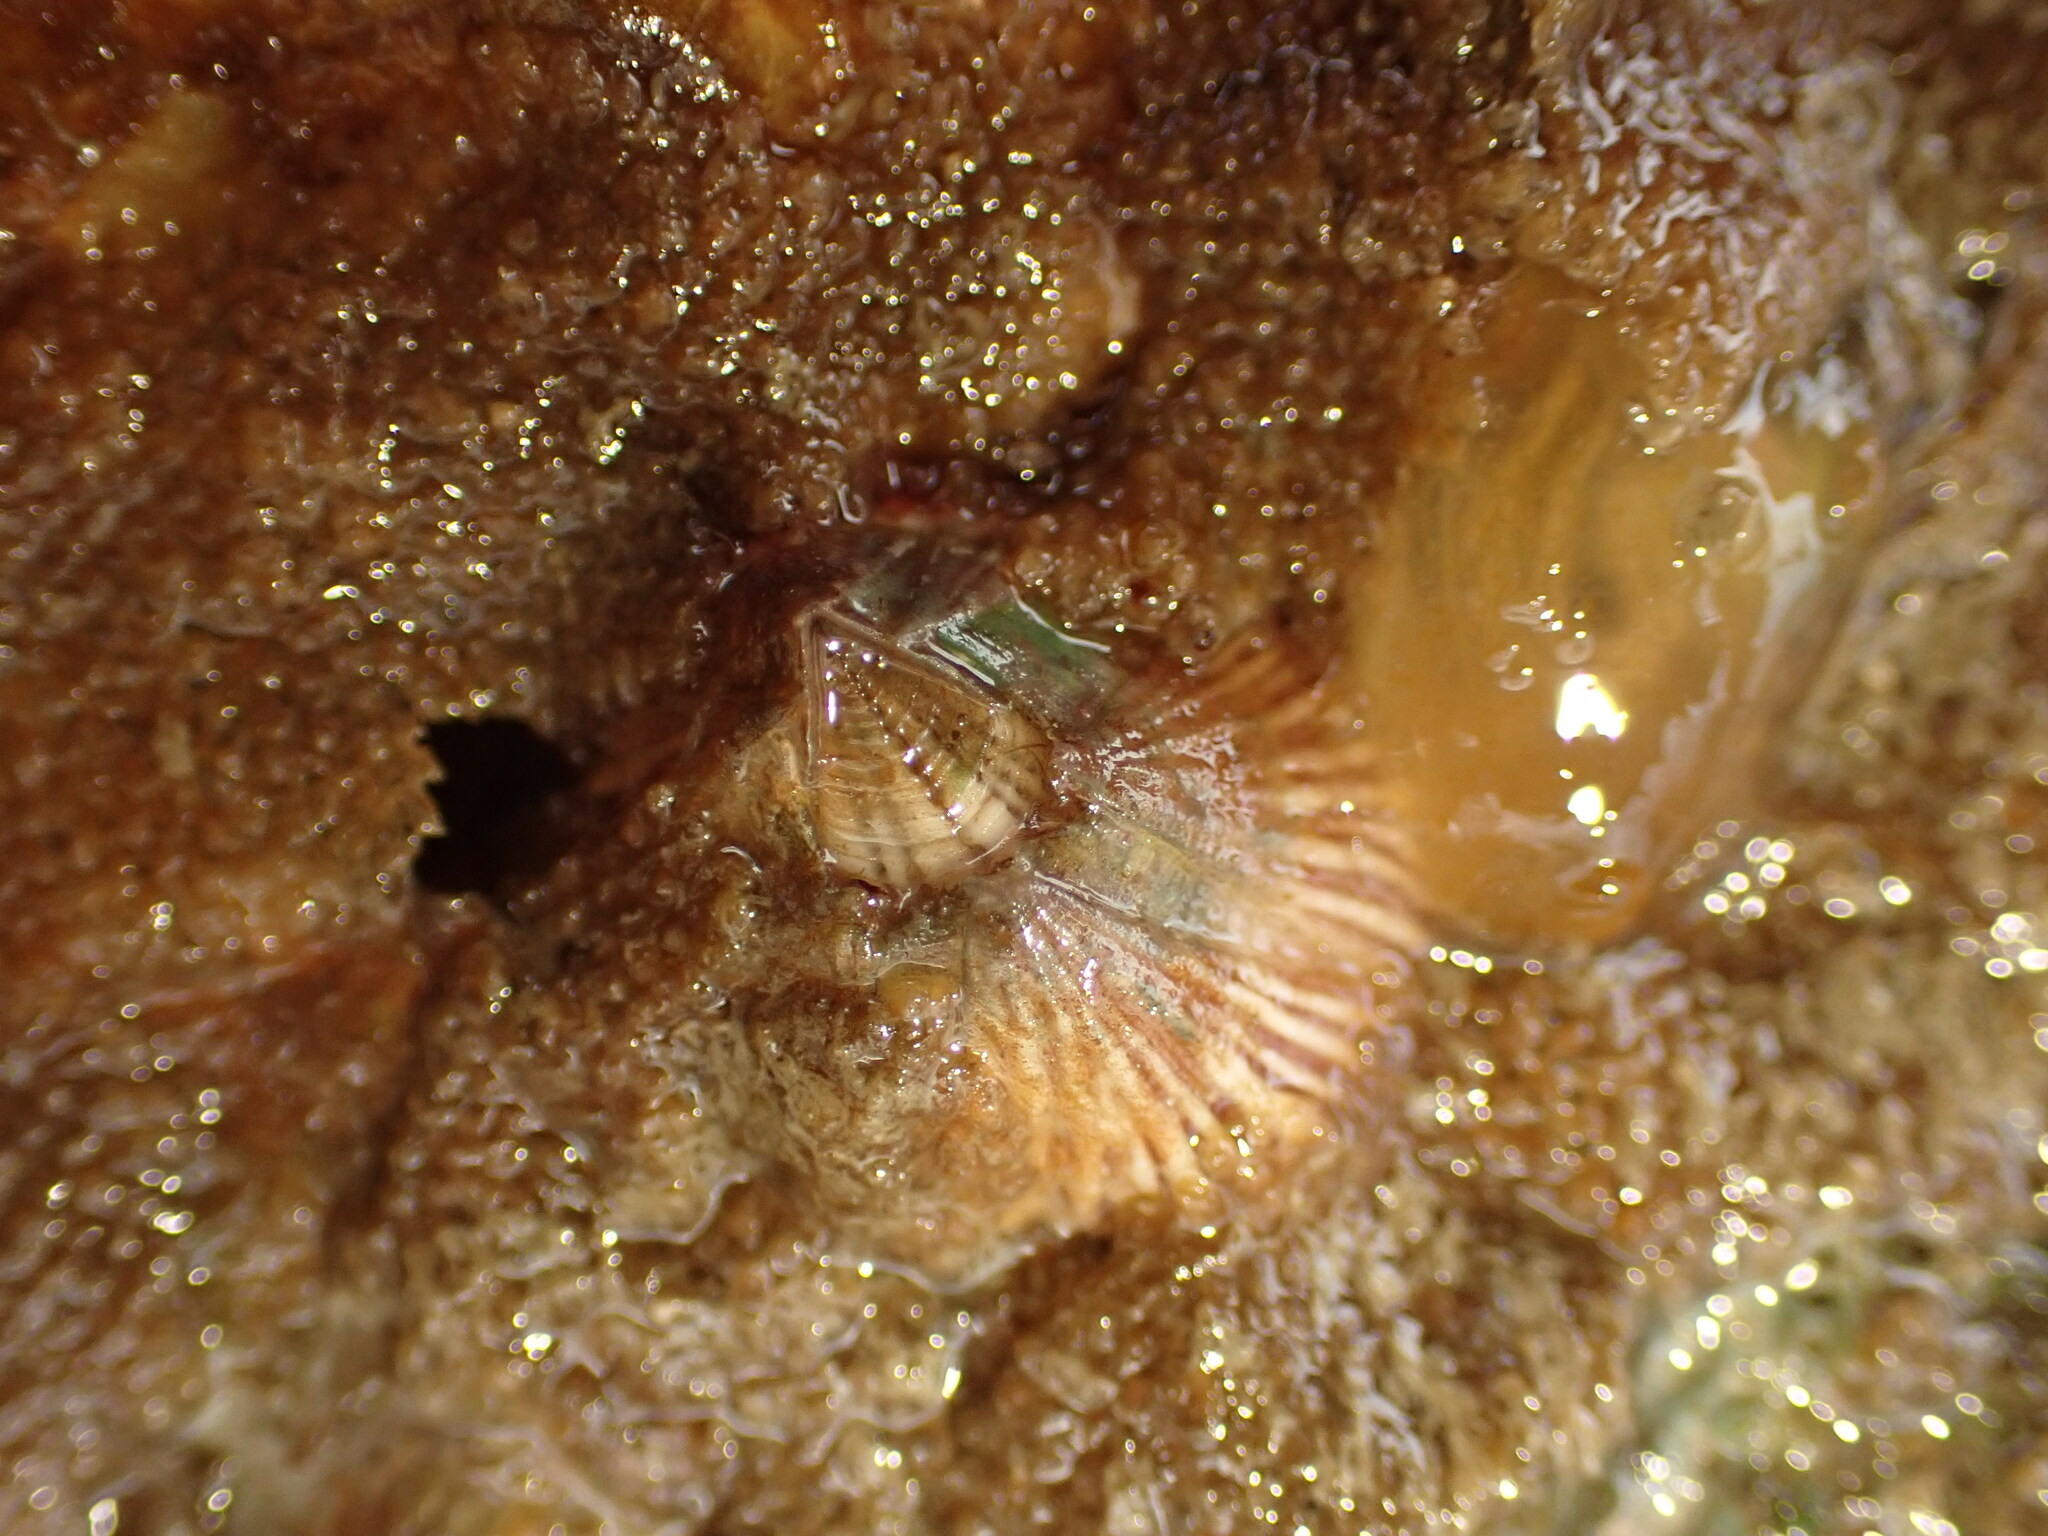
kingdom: Animalia
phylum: Arthropoda
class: Maxillopoda
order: Sessilia
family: Balanidae
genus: Balanus
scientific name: Balanus trigonus
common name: Triangle barnacle
